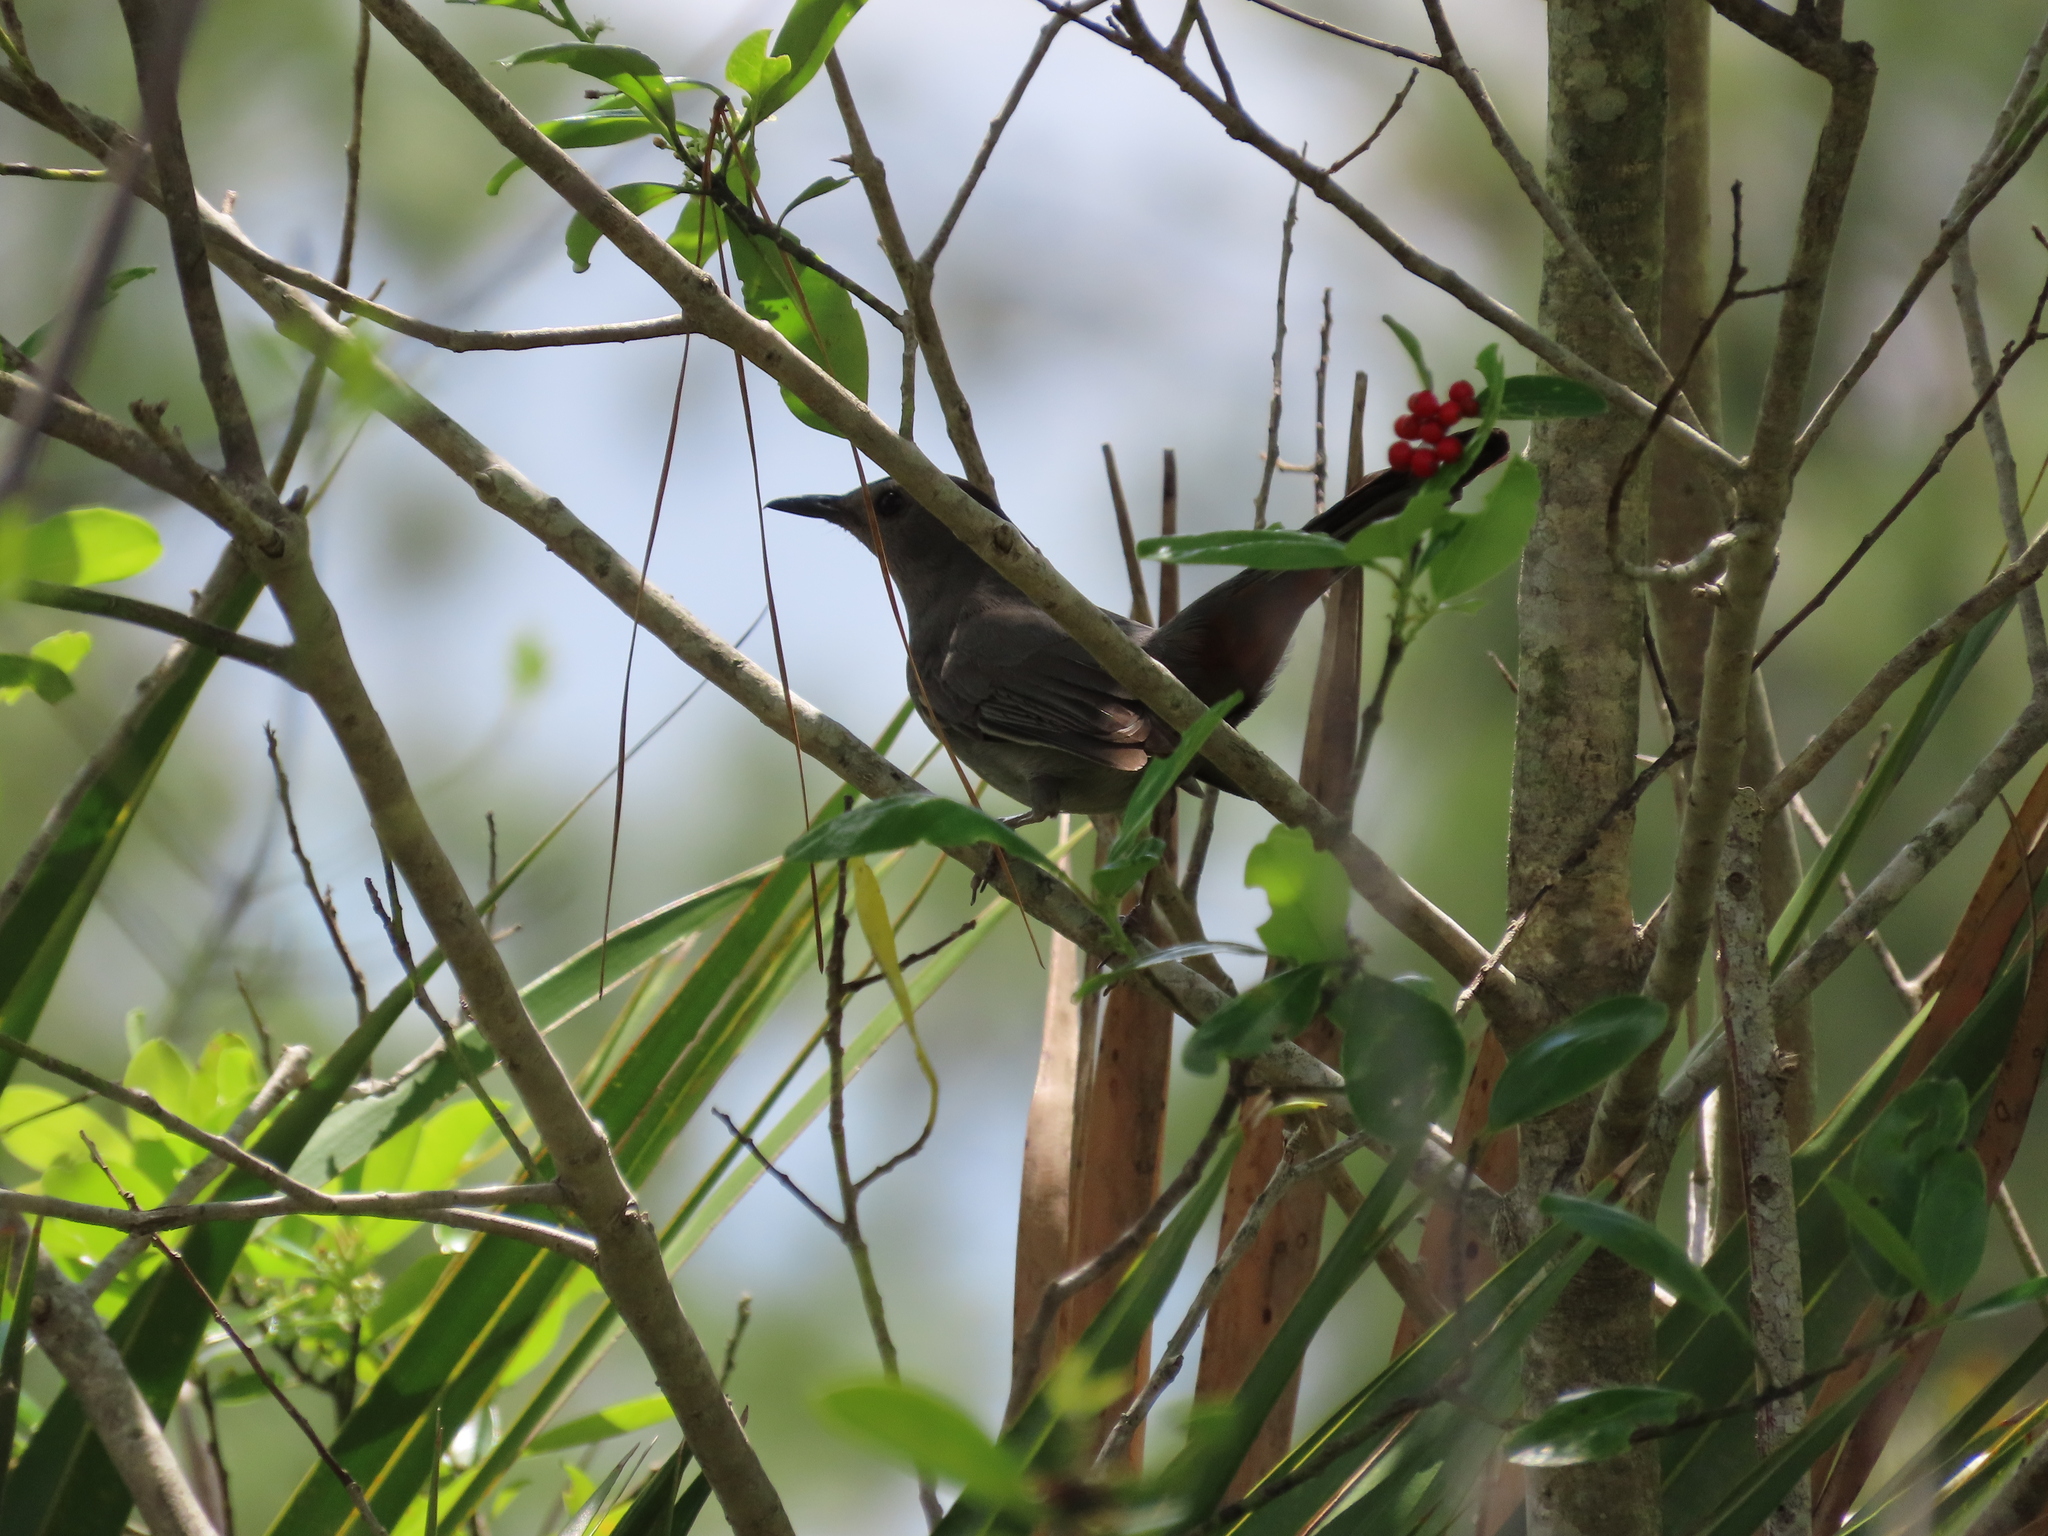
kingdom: Animalia
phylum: Chordata
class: Aves
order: Passeriformes
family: Mimidae
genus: Dumetella
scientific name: Dumetella carolinensis
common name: Gray catbird
